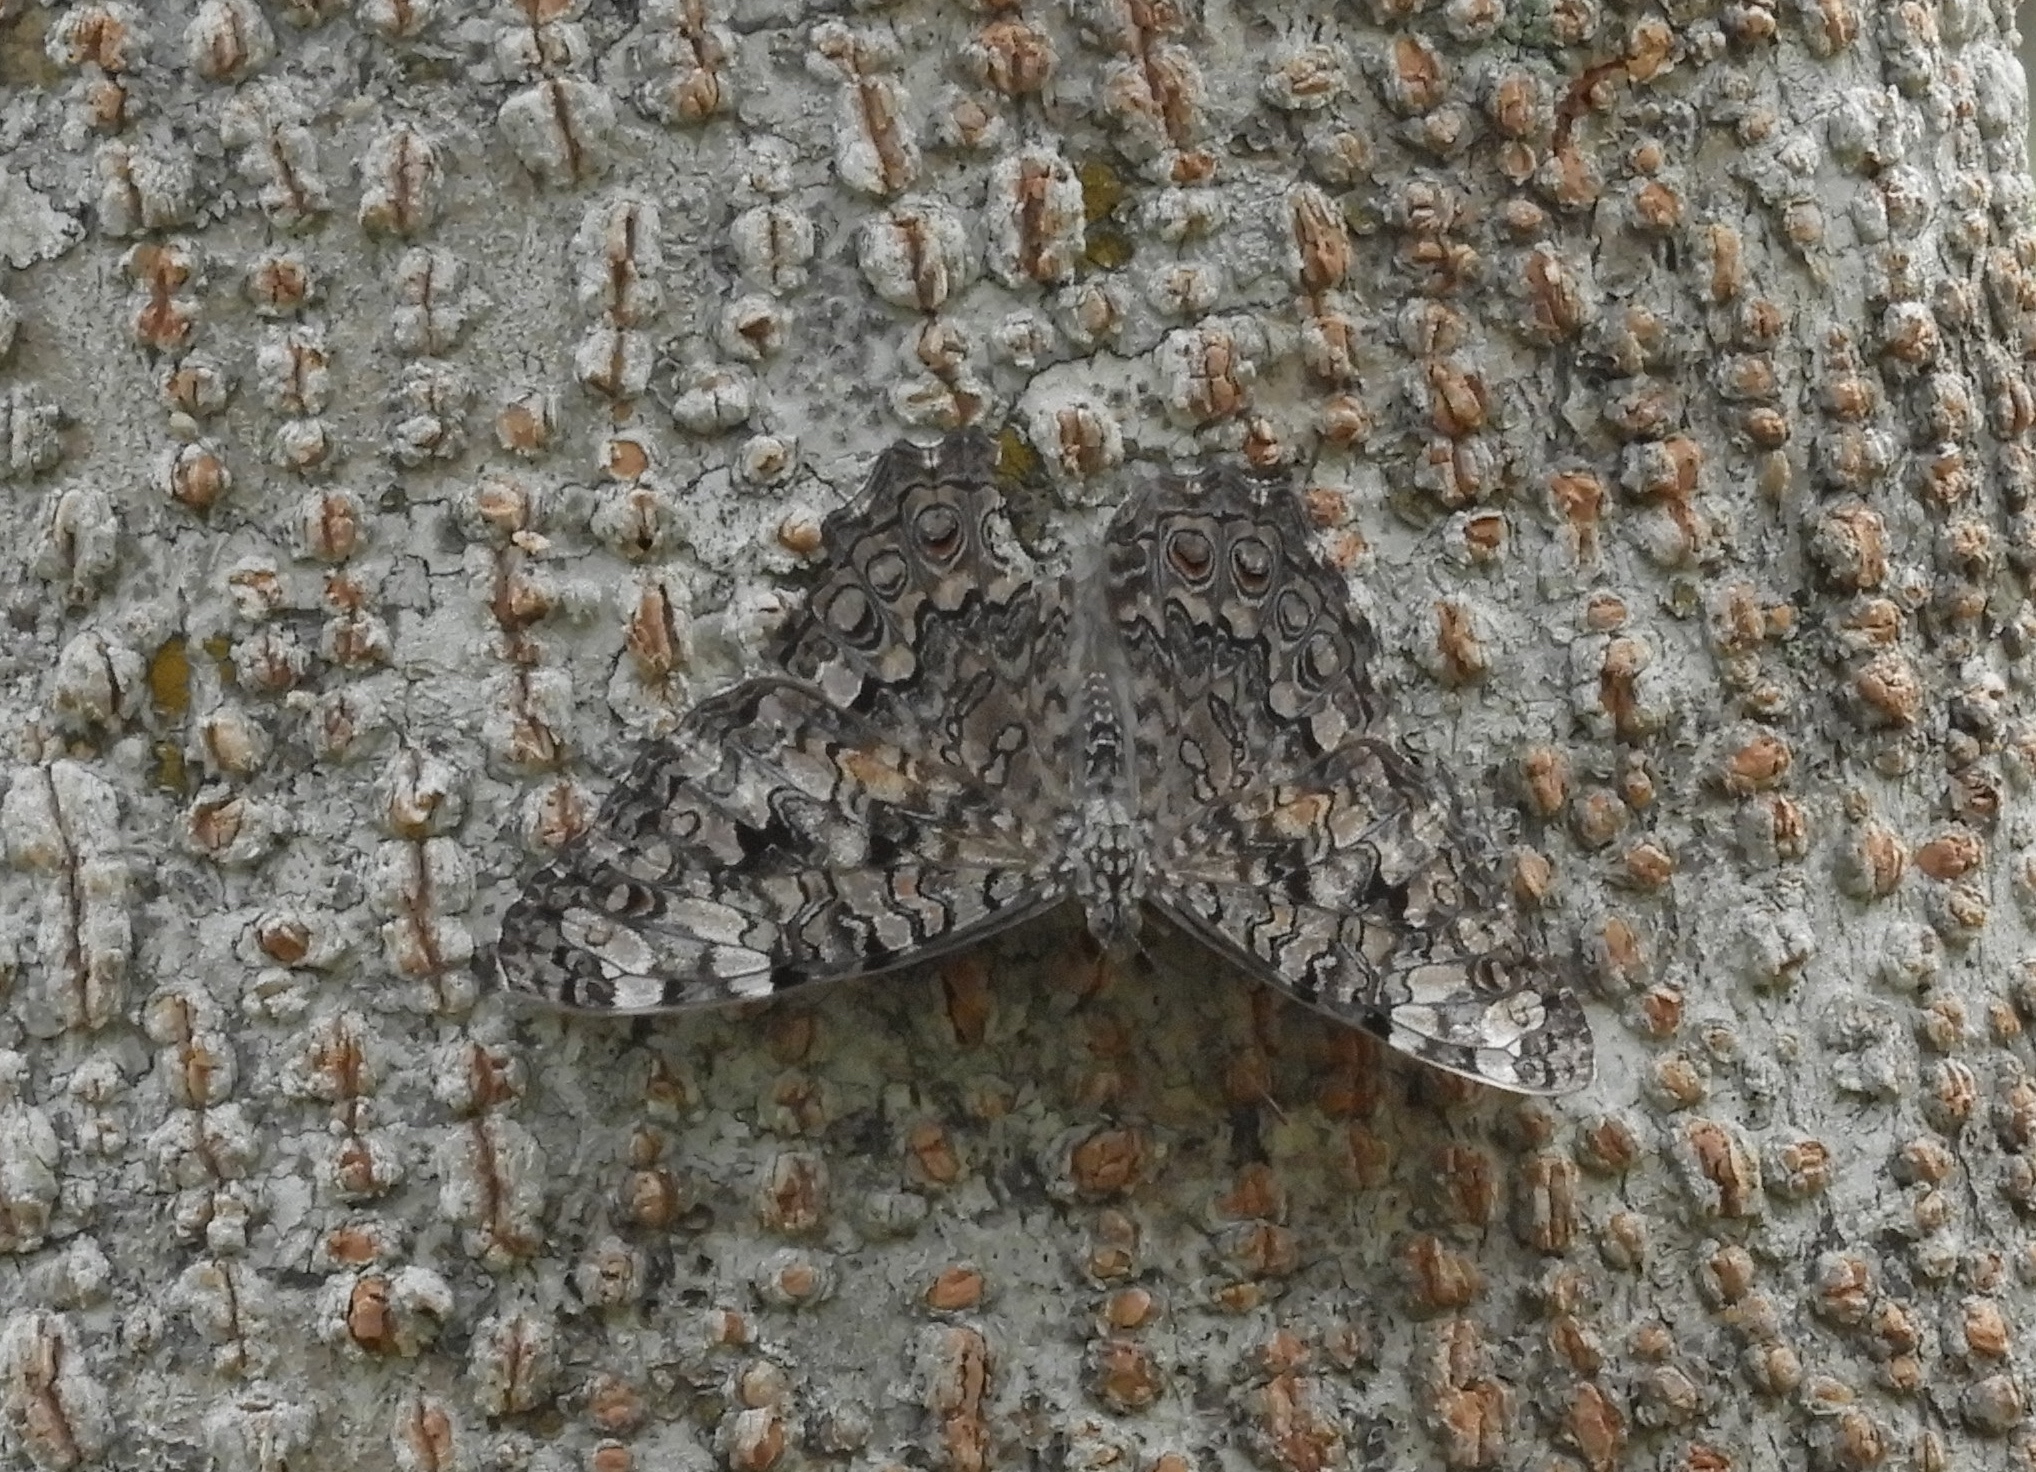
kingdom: Animalia
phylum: Arthropoda
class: Insecta
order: Lepidoptera
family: Nymphalidae
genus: Hamadryas
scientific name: Hamadryas februa
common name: Gray cracker
